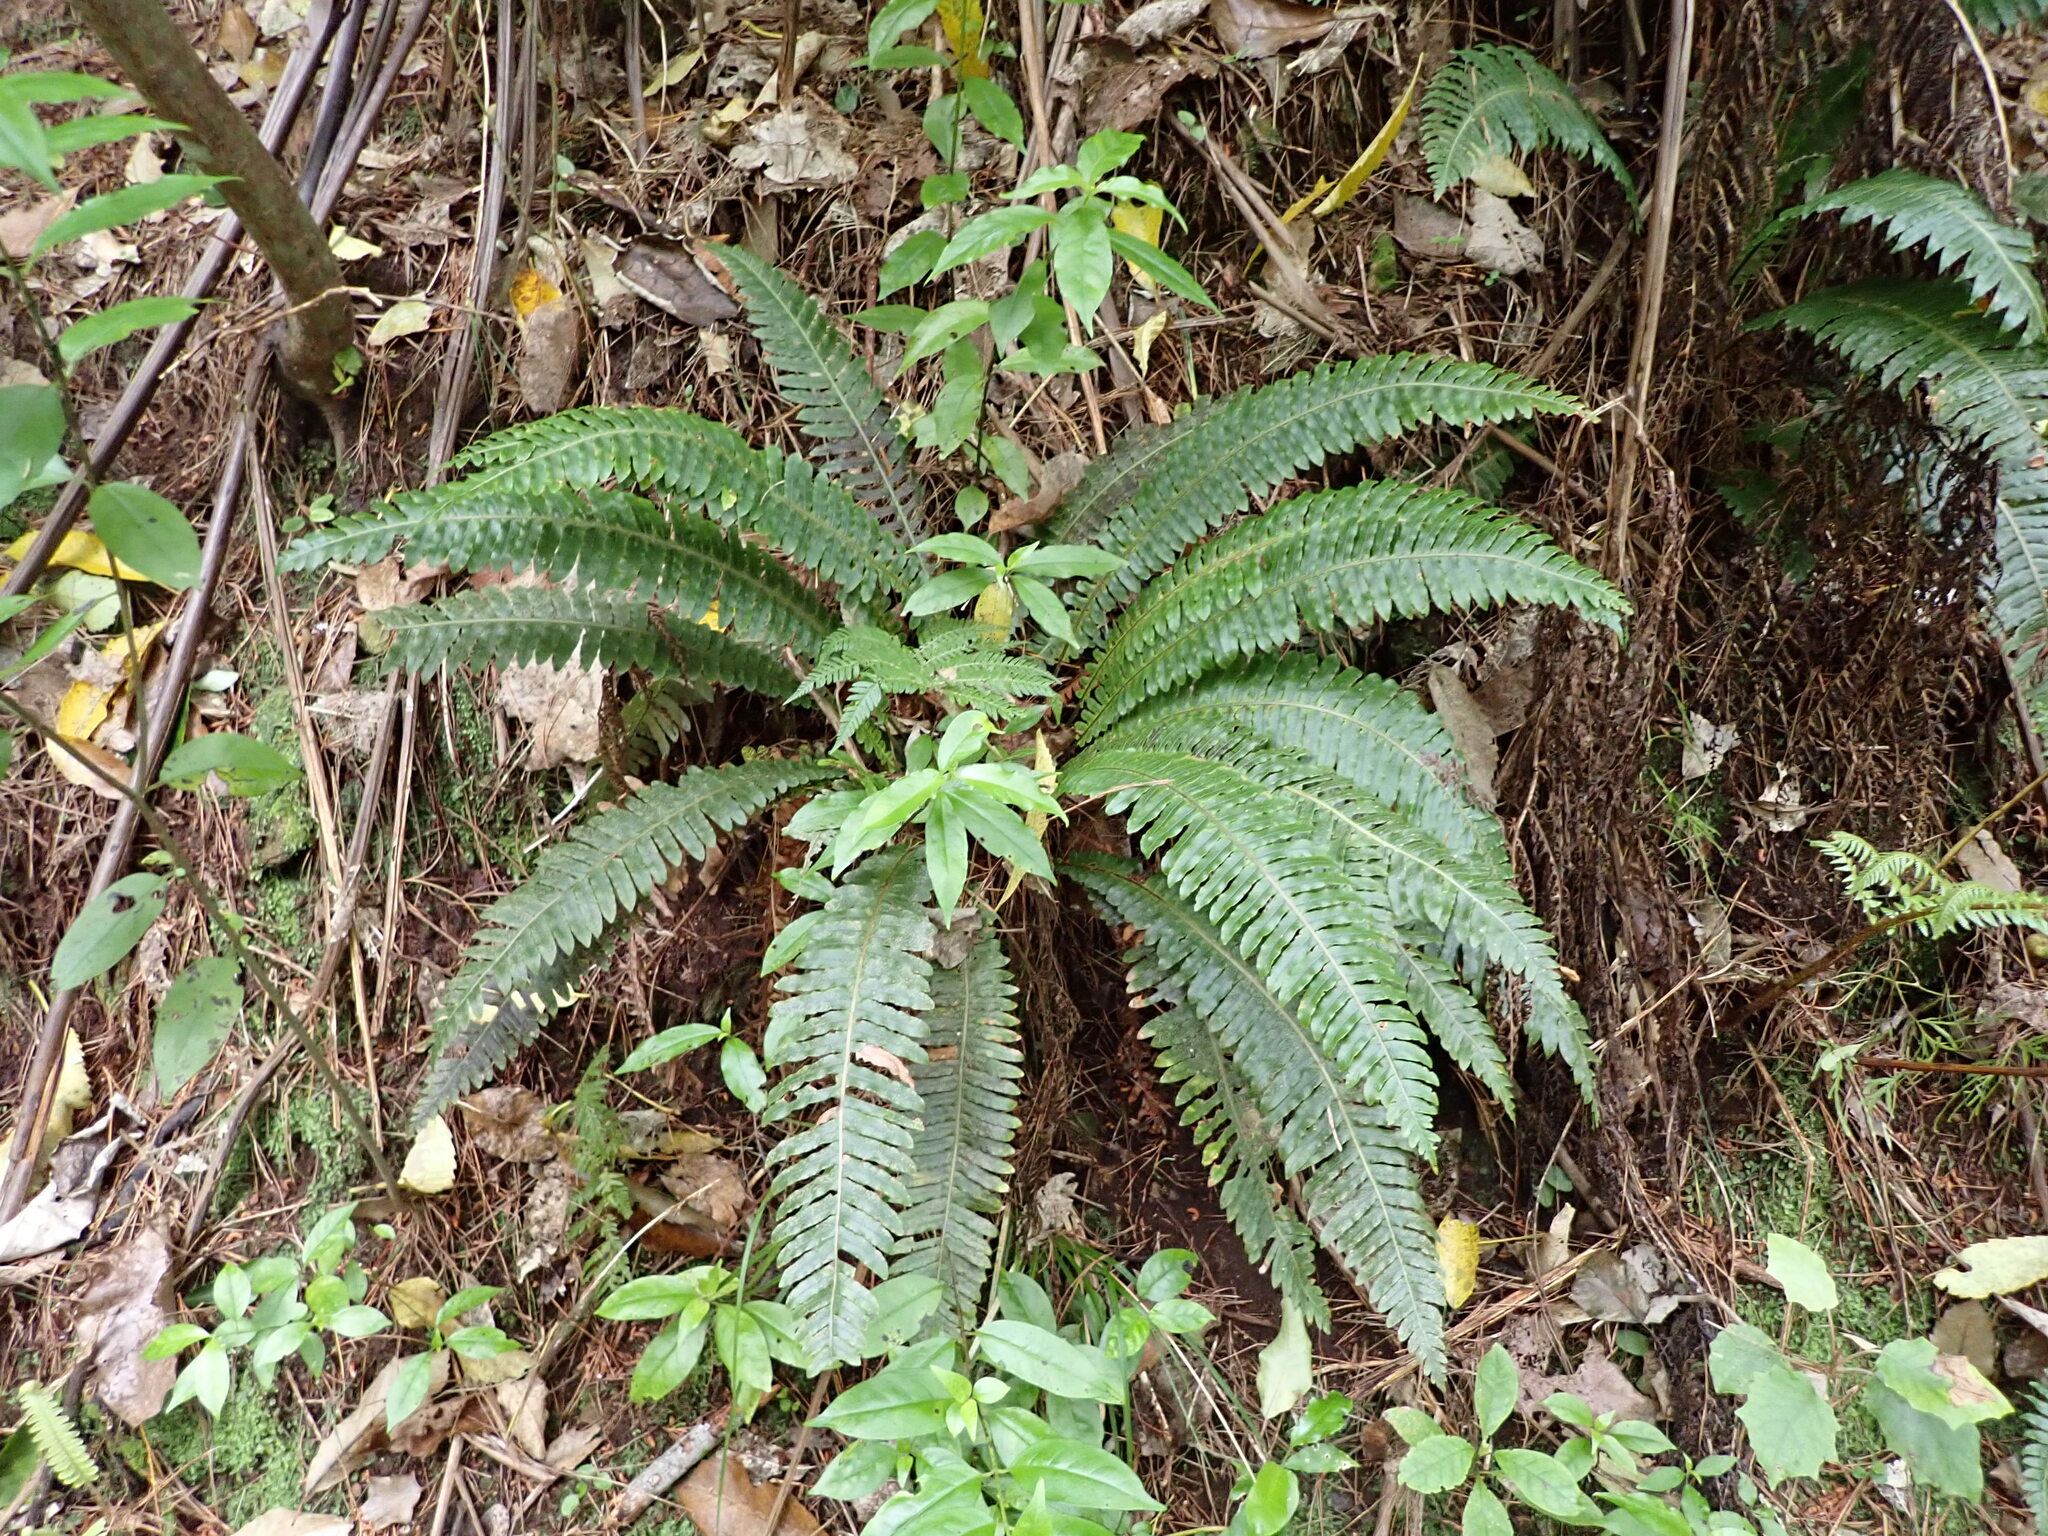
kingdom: Plantae
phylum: Tracheophyta
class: Polypodiopsida
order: Polypodiales
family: Blechnaceae
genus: Lomaria
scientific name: Lomaria discolor
